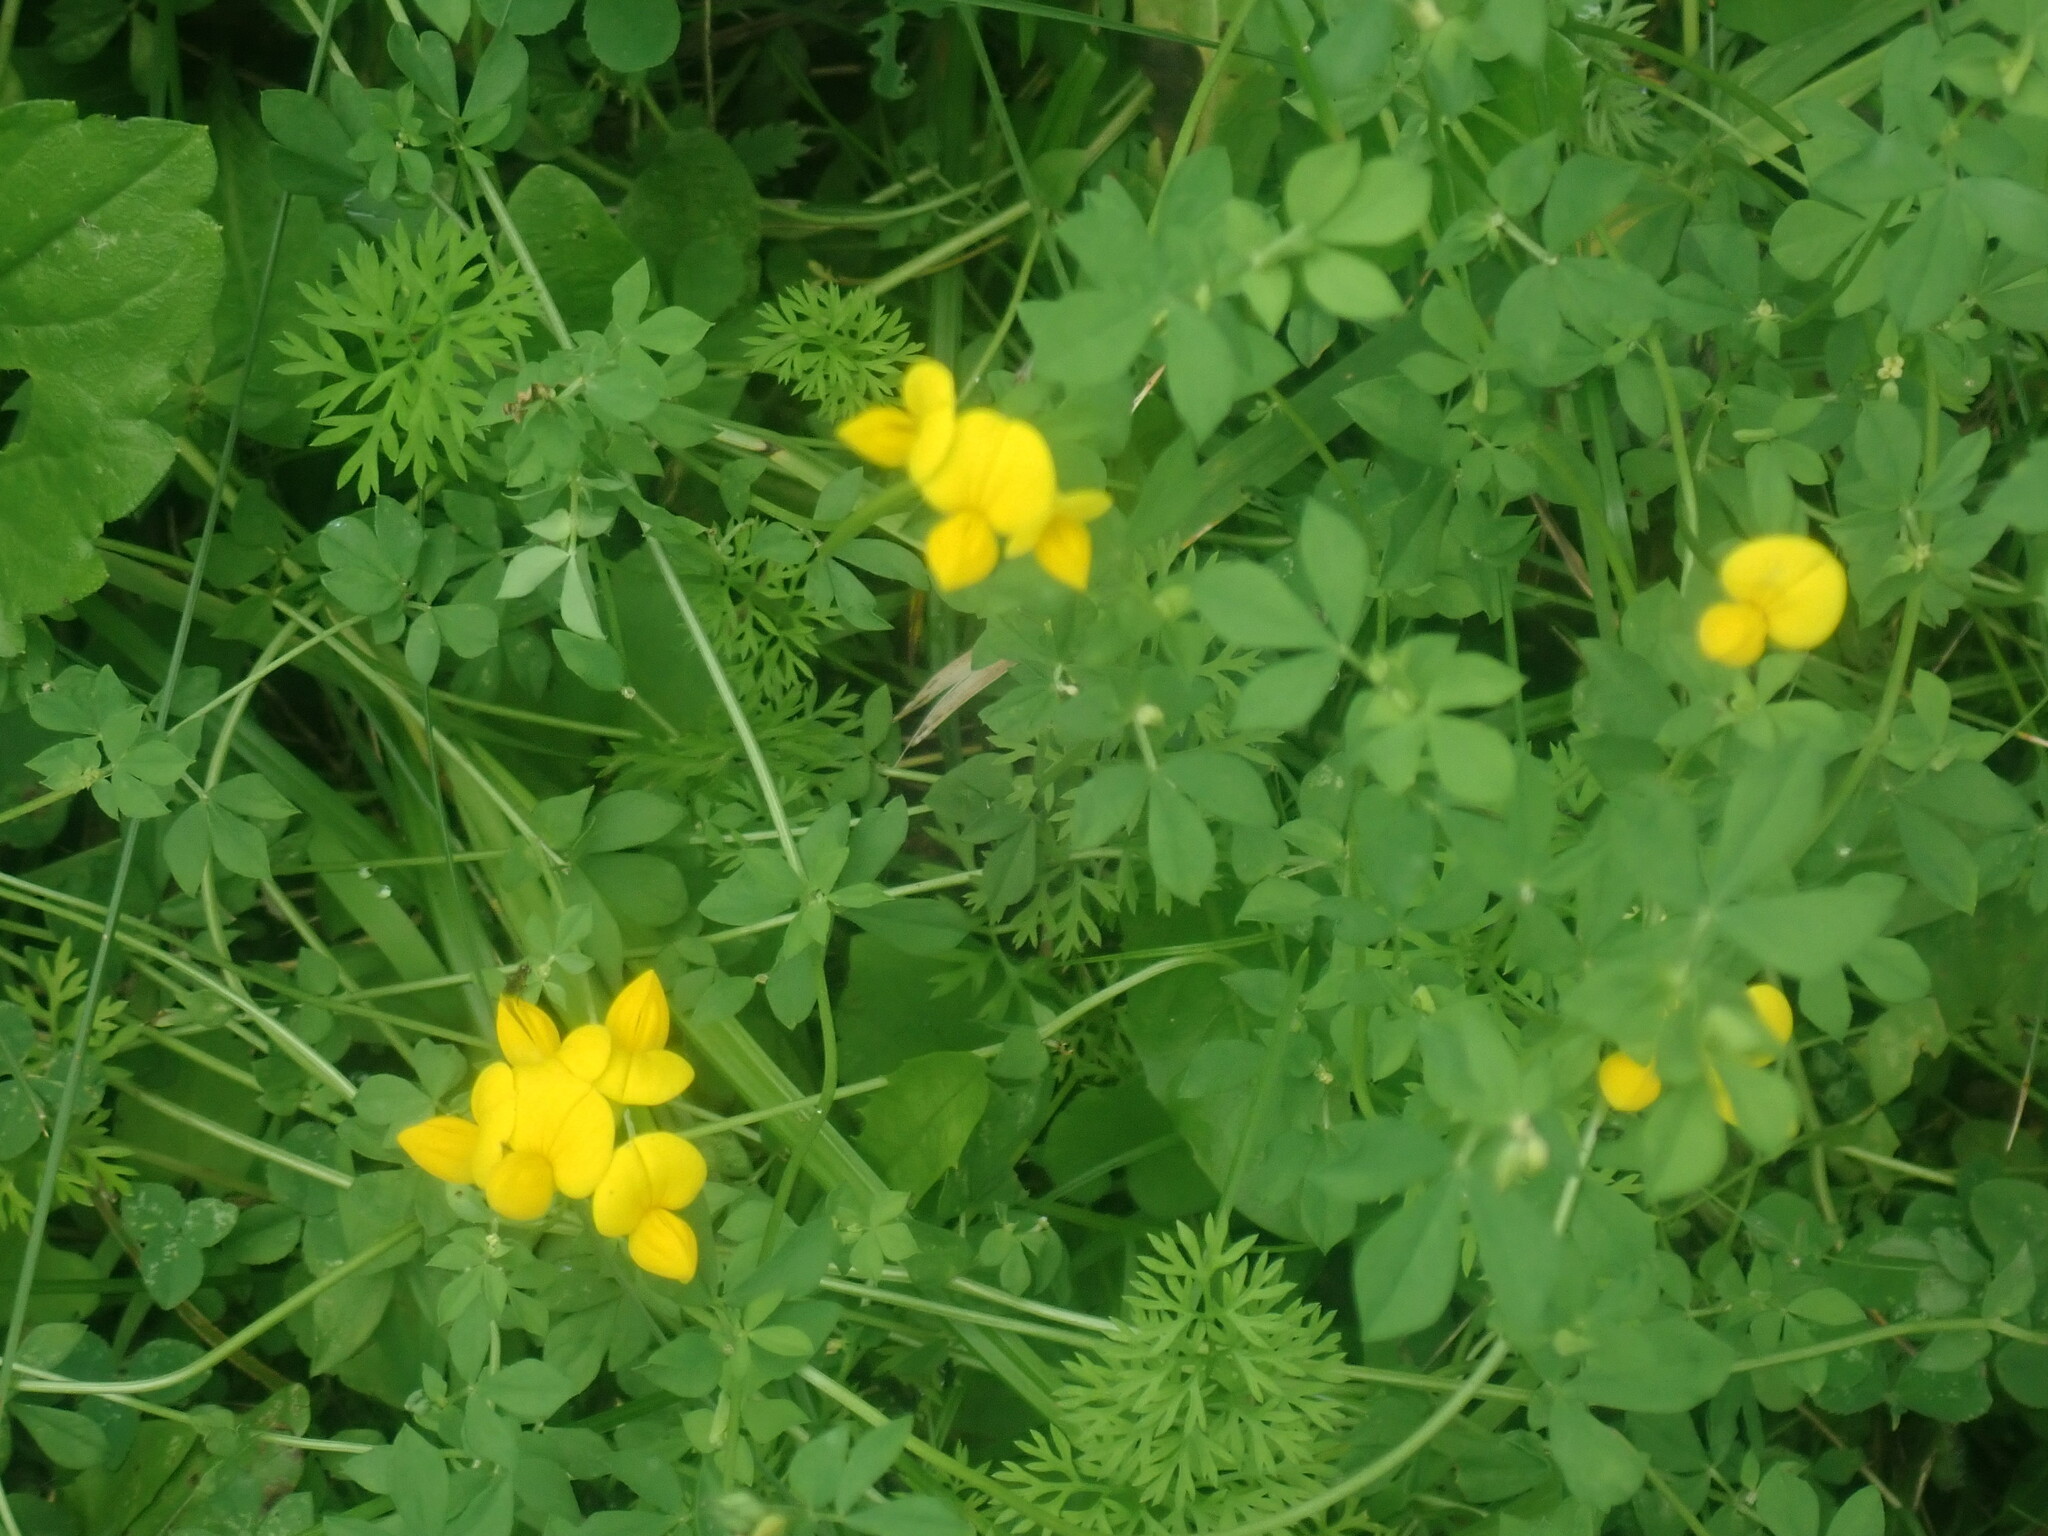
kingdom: Plantae
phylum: Tracheophyta
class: Magnoliopsida
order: Fabales
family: Fabaceae
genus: Lotus
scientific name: Lotus corniculatus
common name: Common bird's-foot-trefoil
